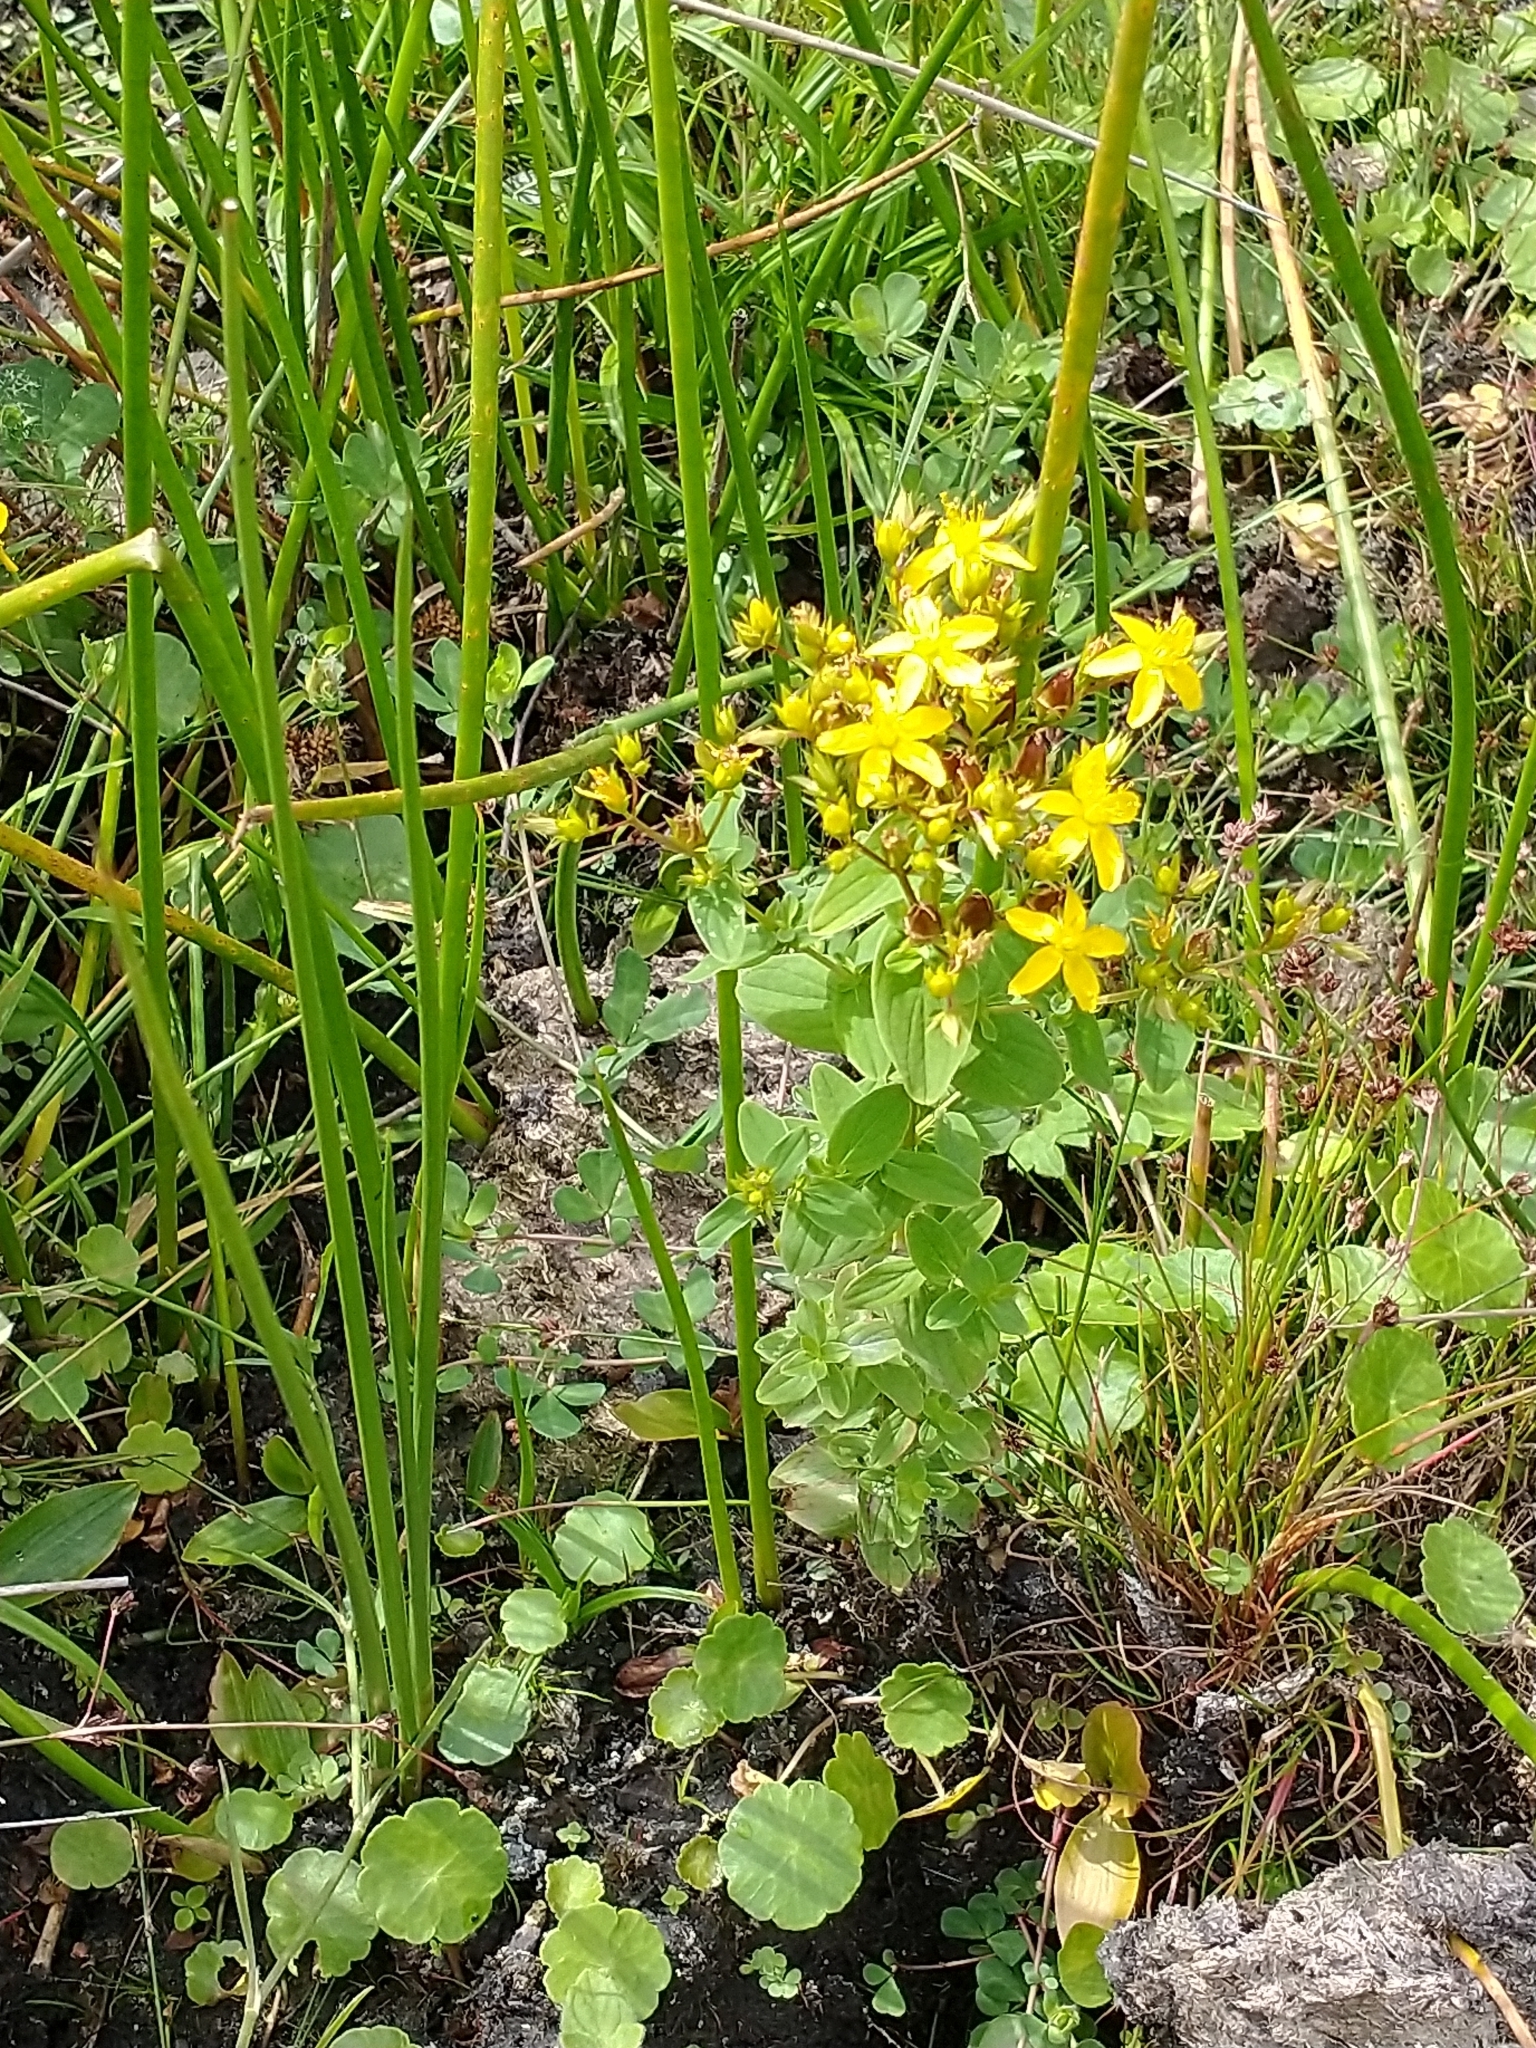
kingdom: Plantae
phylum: Tracheophyta
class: Magnoliopsida
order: Malpighiales
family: Hypericaceae
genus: Hypericum
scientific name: Hypericum tetrapterum
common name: Square-stalked st. john's-wort
